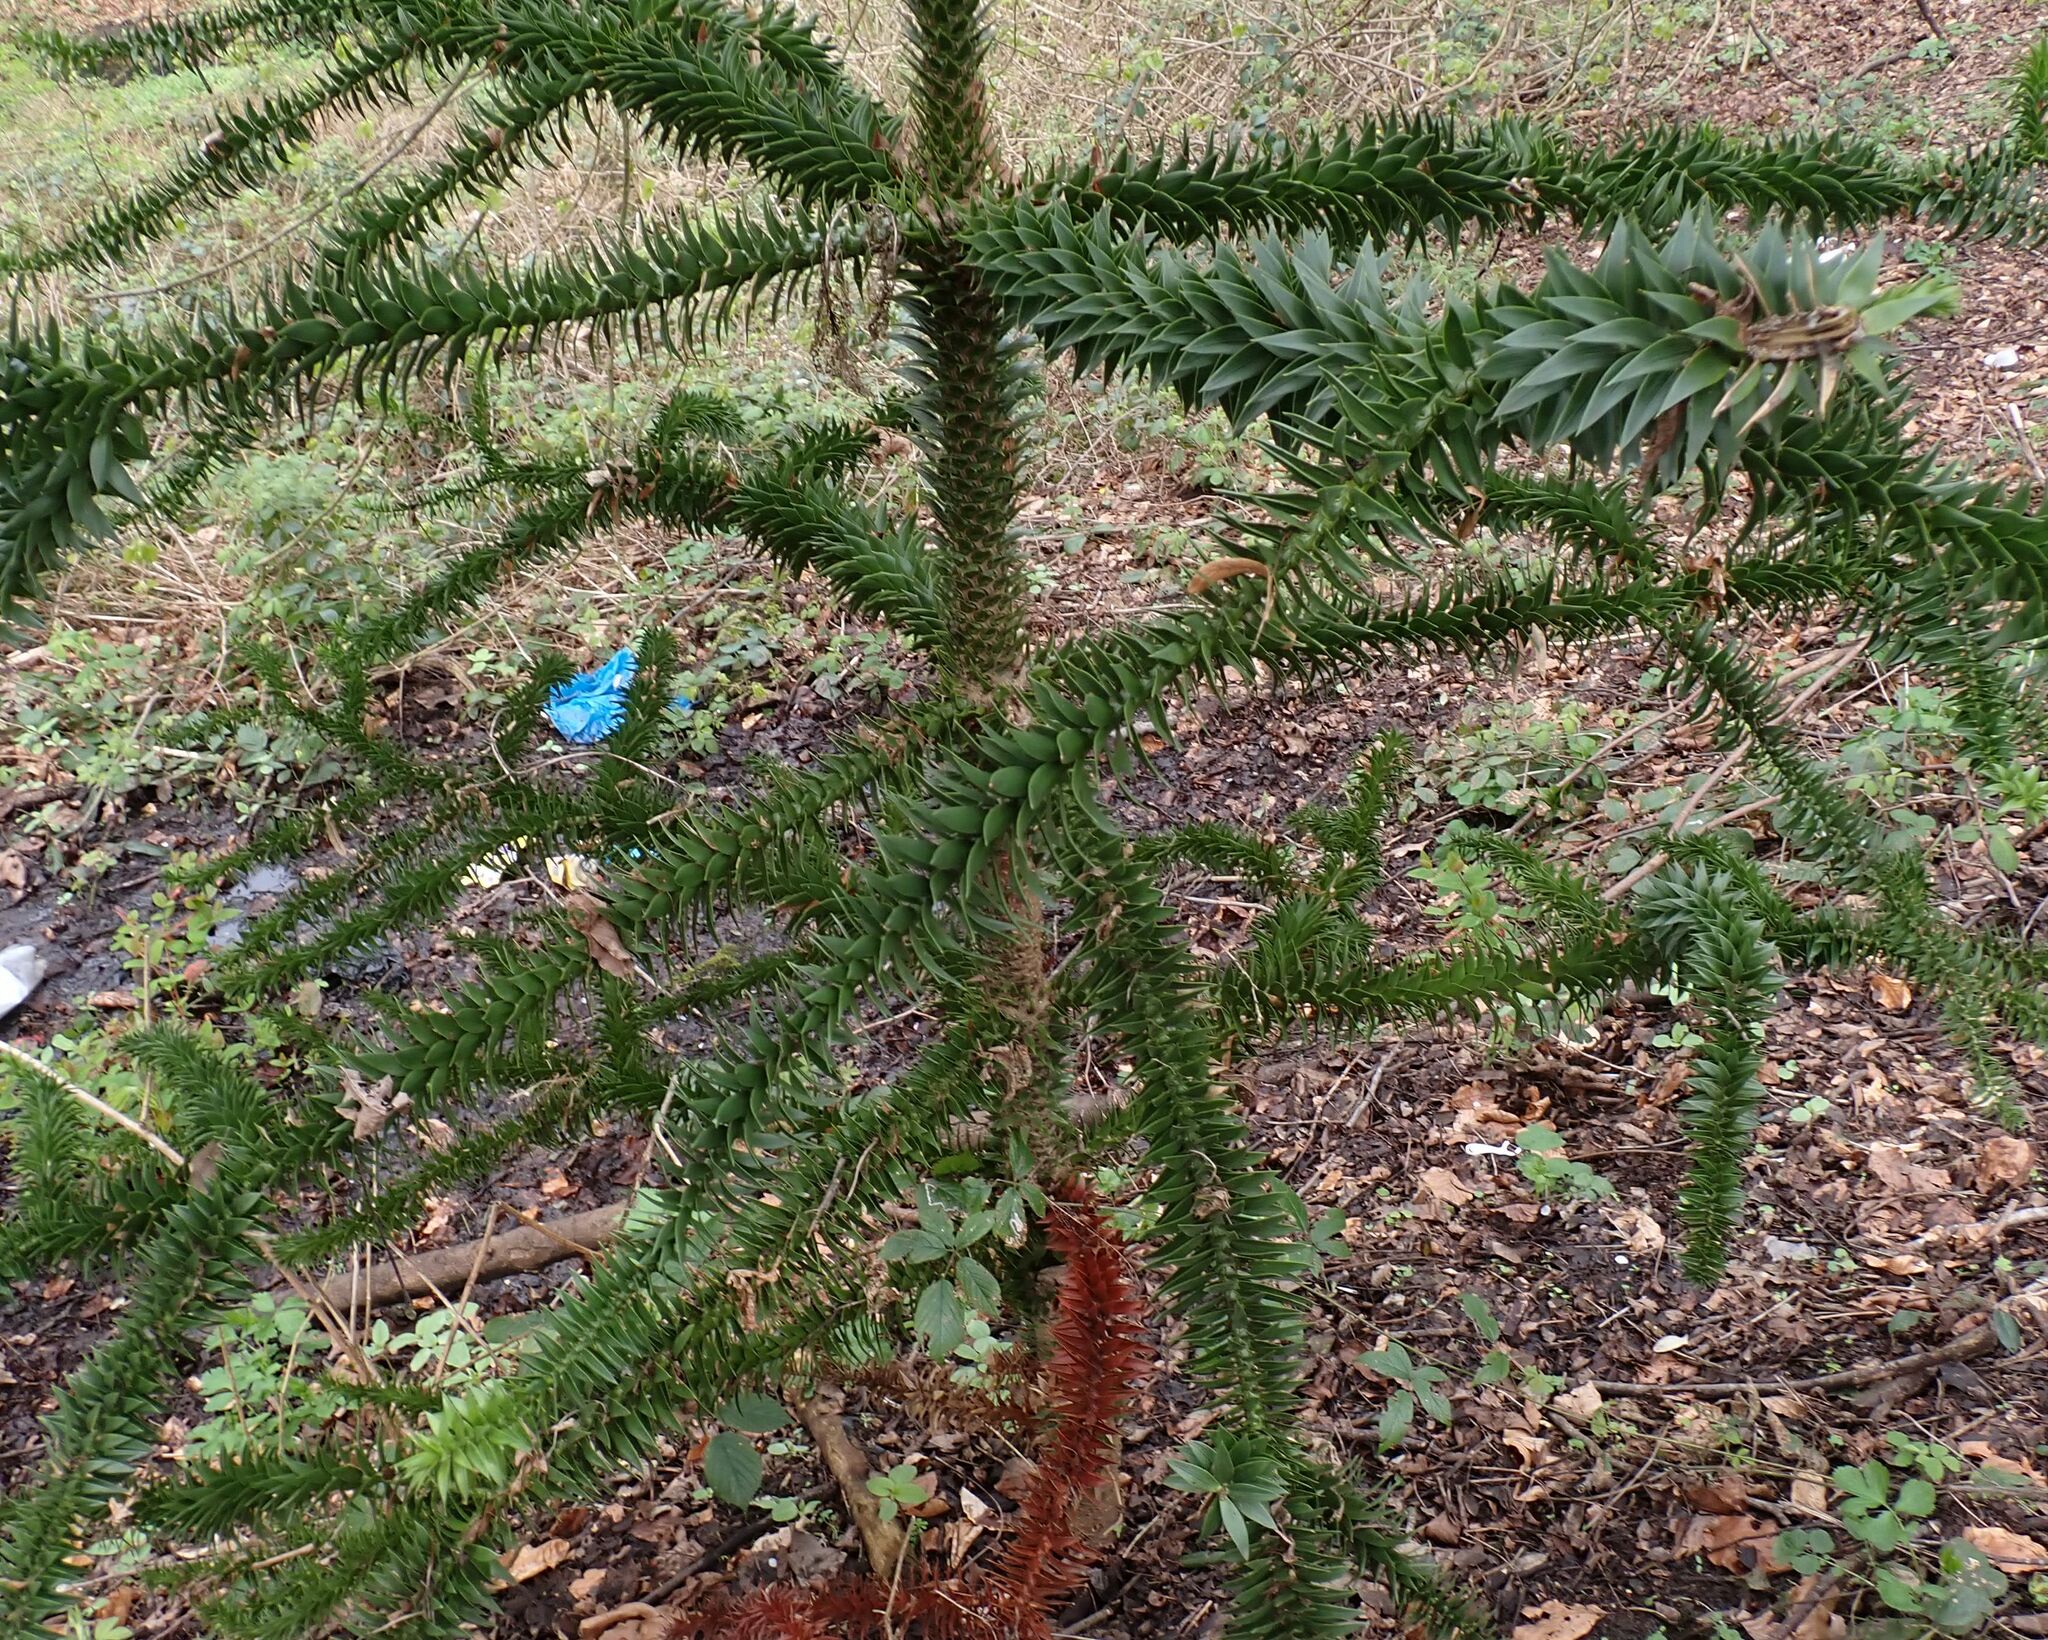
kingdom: Plantae
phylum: Tracheophyta
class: Pinopsida
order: Pinales
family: Araucariaceae
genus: Araucaria
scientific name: Araucaria araucana
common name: Monkey-puzzle
